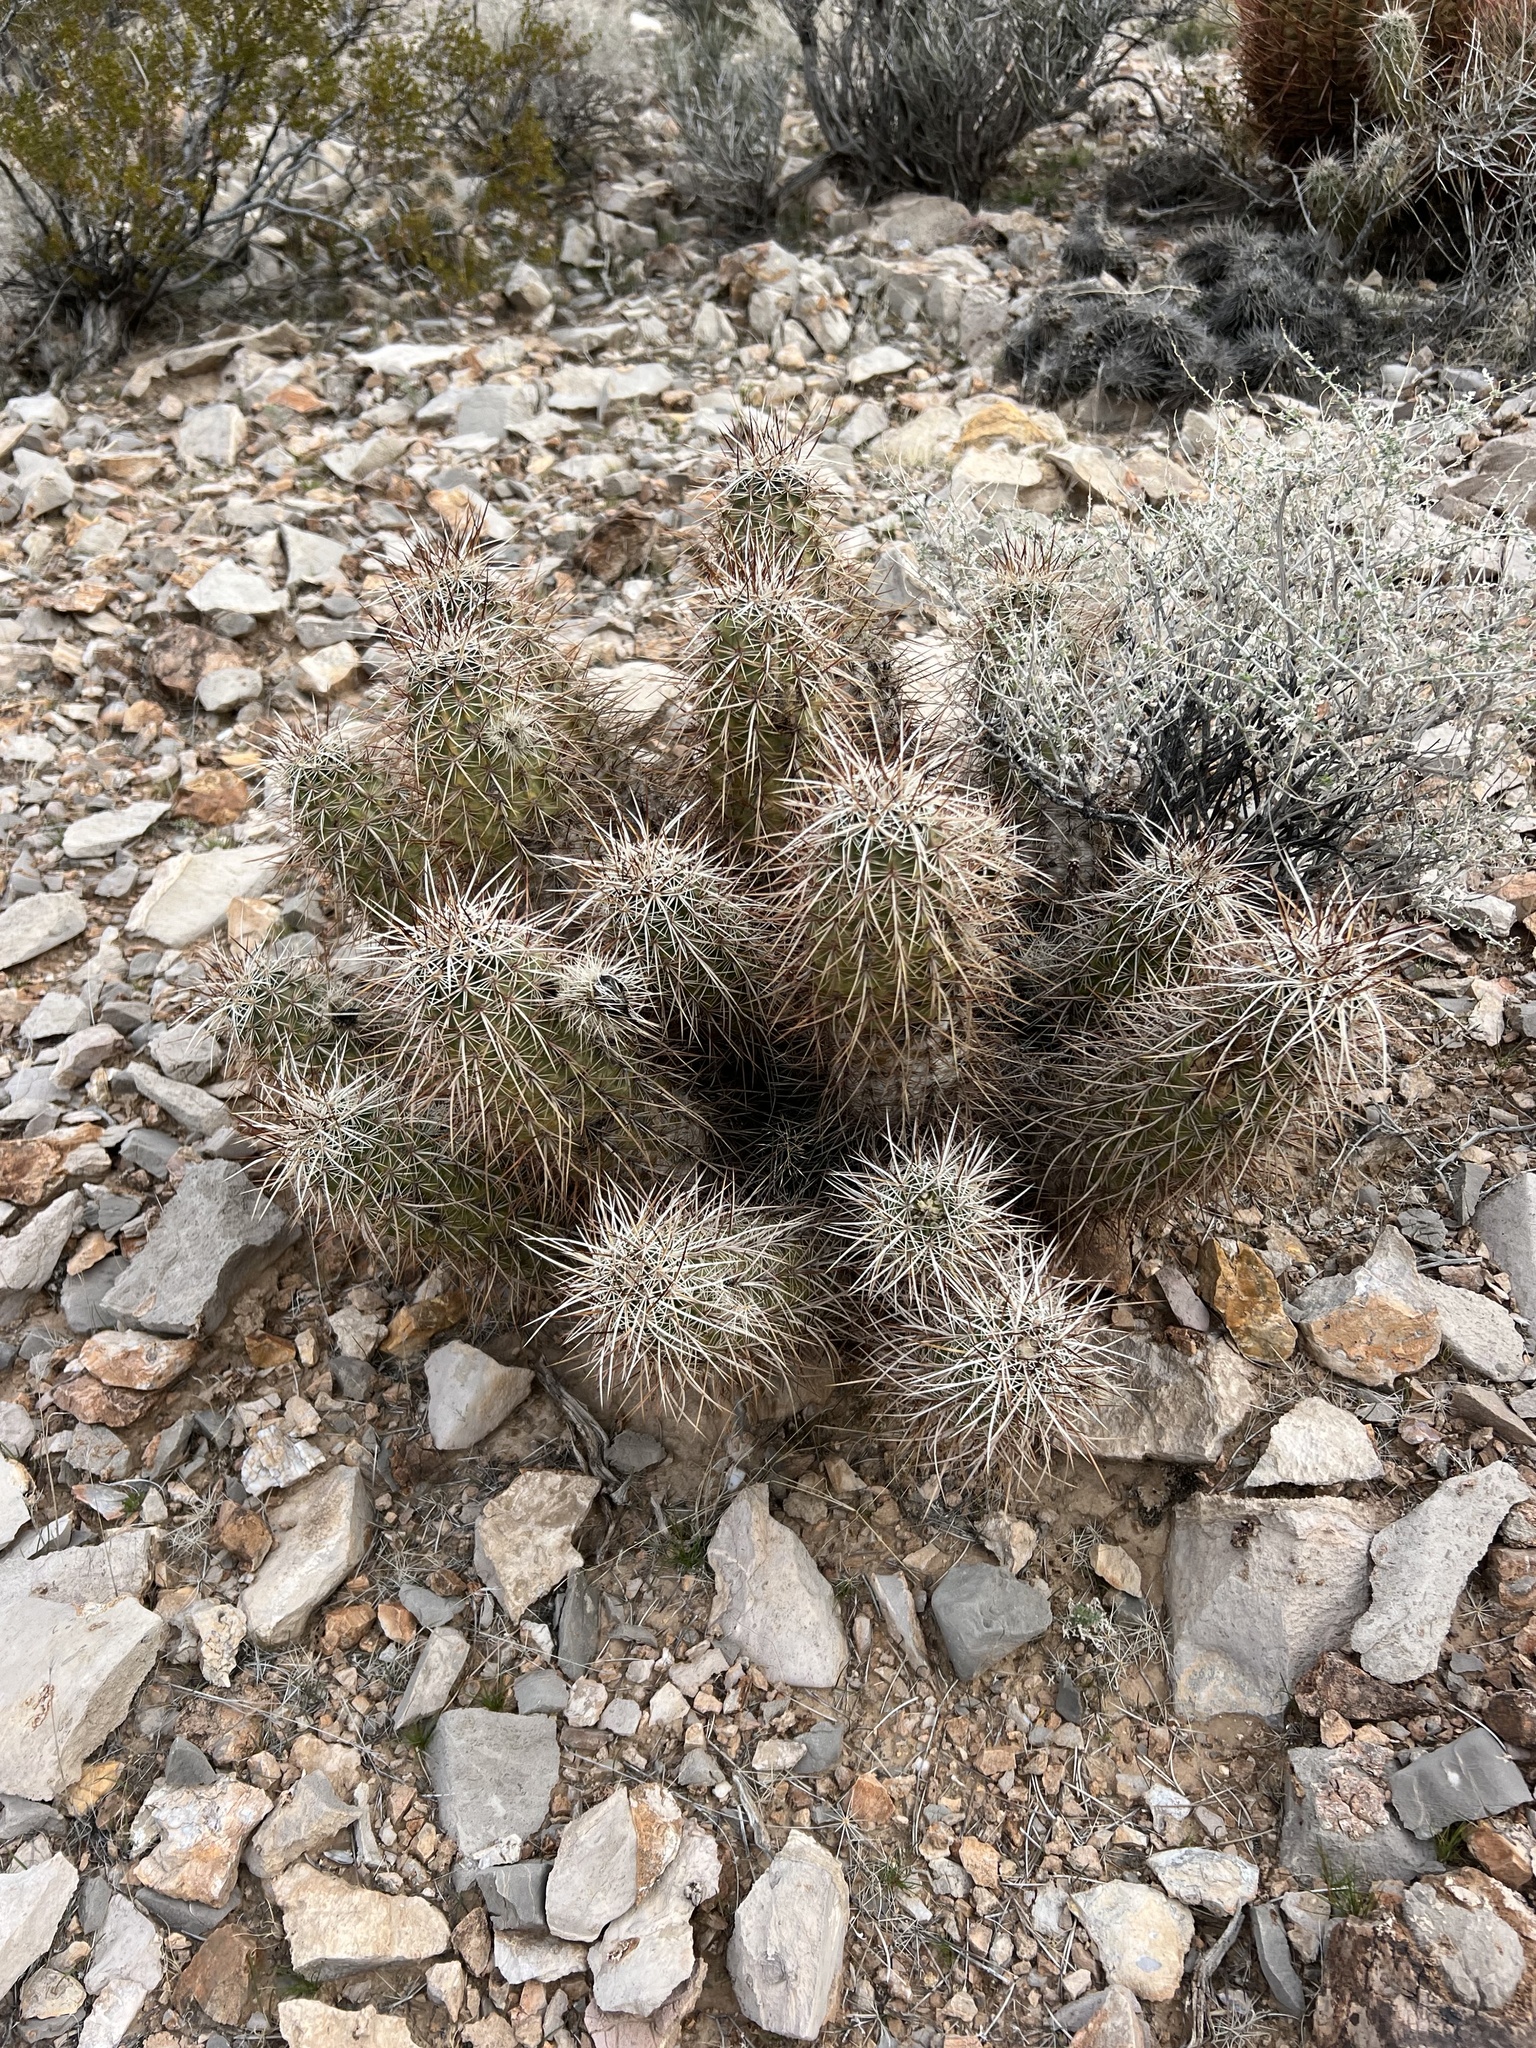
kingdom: Plantae
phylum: Tracheophyta
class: Magnoliopsida
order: Caryophyllales
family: Cactaceae
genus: Echinocereus
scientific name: Echinocereus engelmannii
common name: Engelmann's hedgehog cactus
